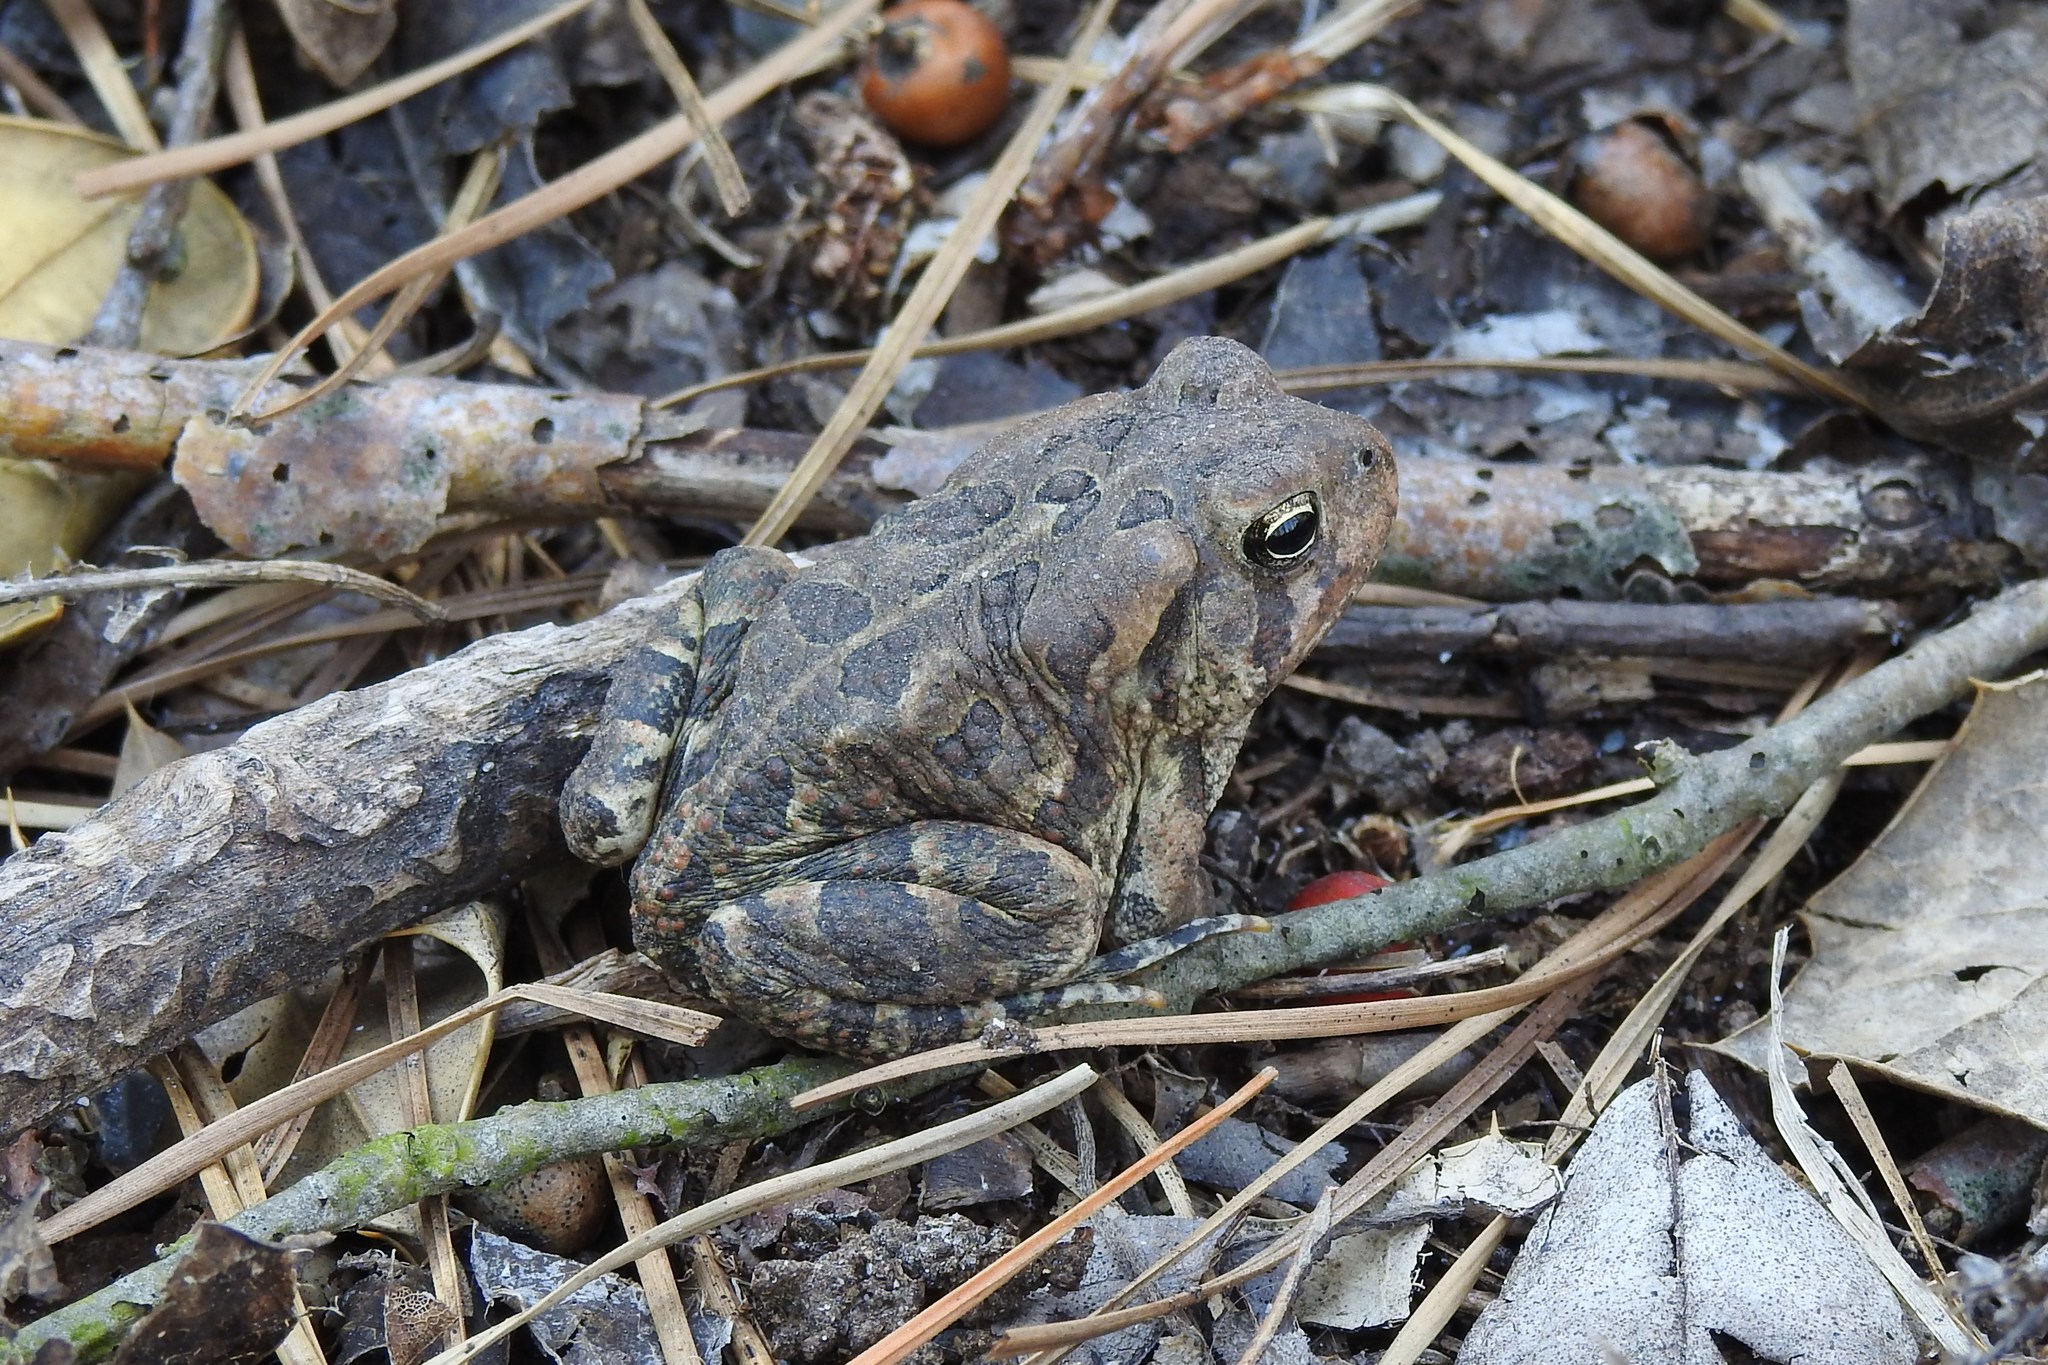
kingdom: Animalia
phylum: Chordata
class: Amphibia
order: Anura
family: Bufonidae
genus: Anaxyrus
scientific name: Anaxyrus fowleri
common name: Fowler's toad
